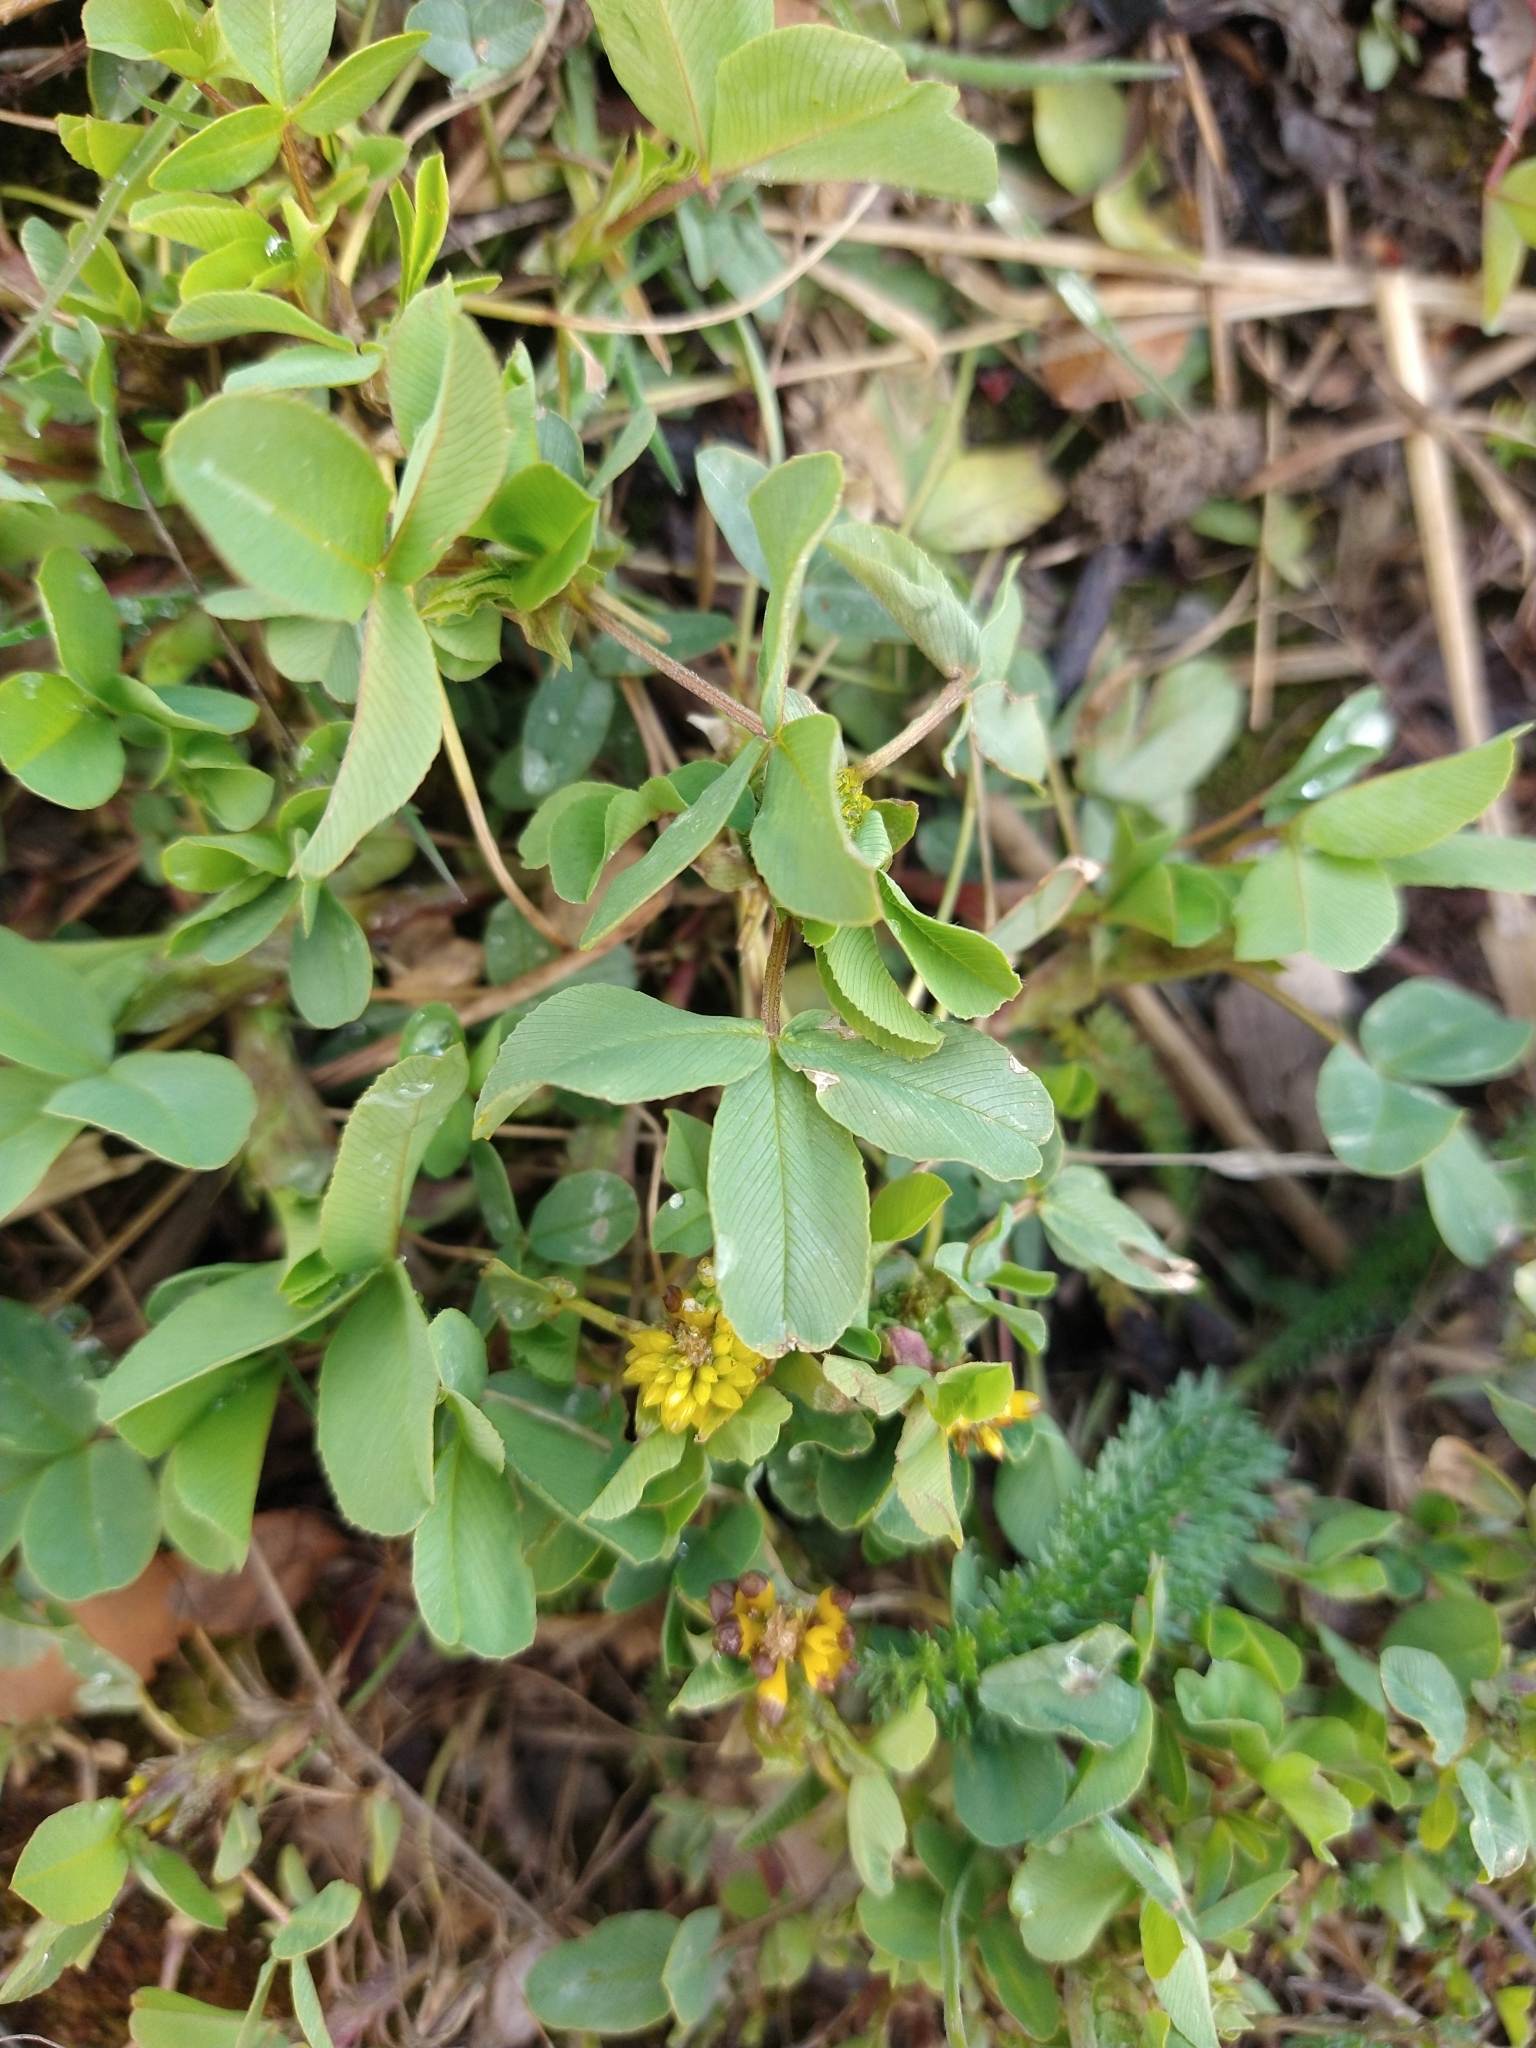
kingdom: Plantae
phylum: Tracheophyta
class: Magnoliopsida
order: Fabales
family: Fabaceae
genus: Trifolium
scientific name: Trifolium spadiceum
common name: Brown moor clover
